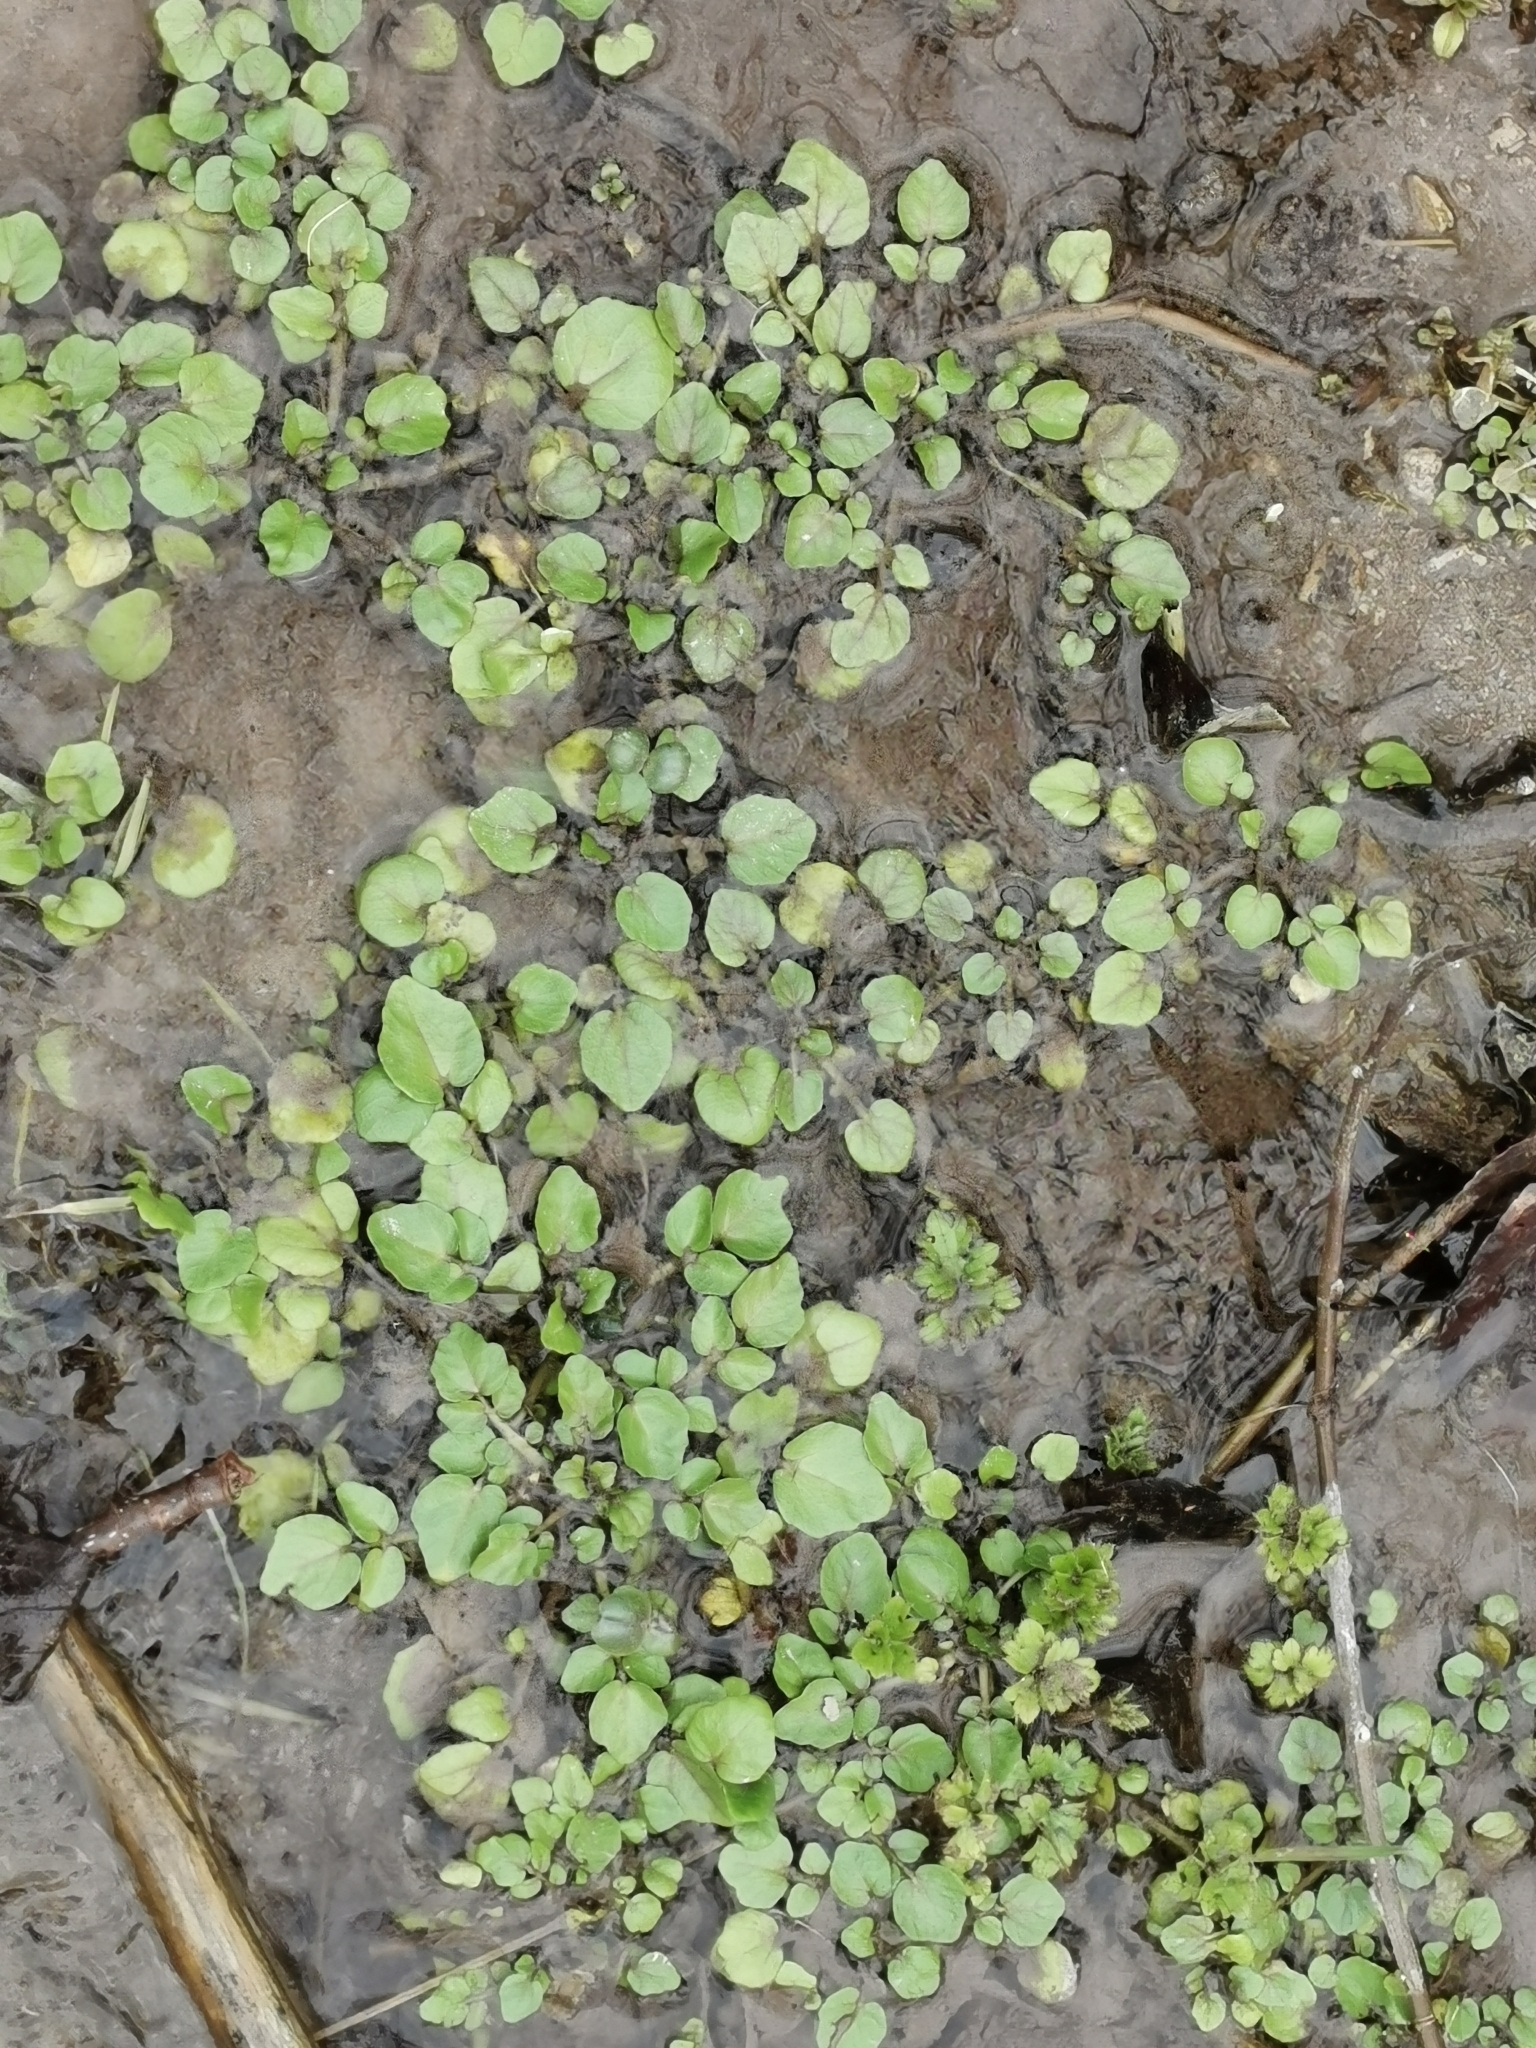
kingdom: Plantae
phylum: Tracheophyta
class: Magnoliopsida
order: Brassicales
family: Brassicaceae
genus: Nasturtium
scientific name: Nasturtium officinale
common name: Watercress
